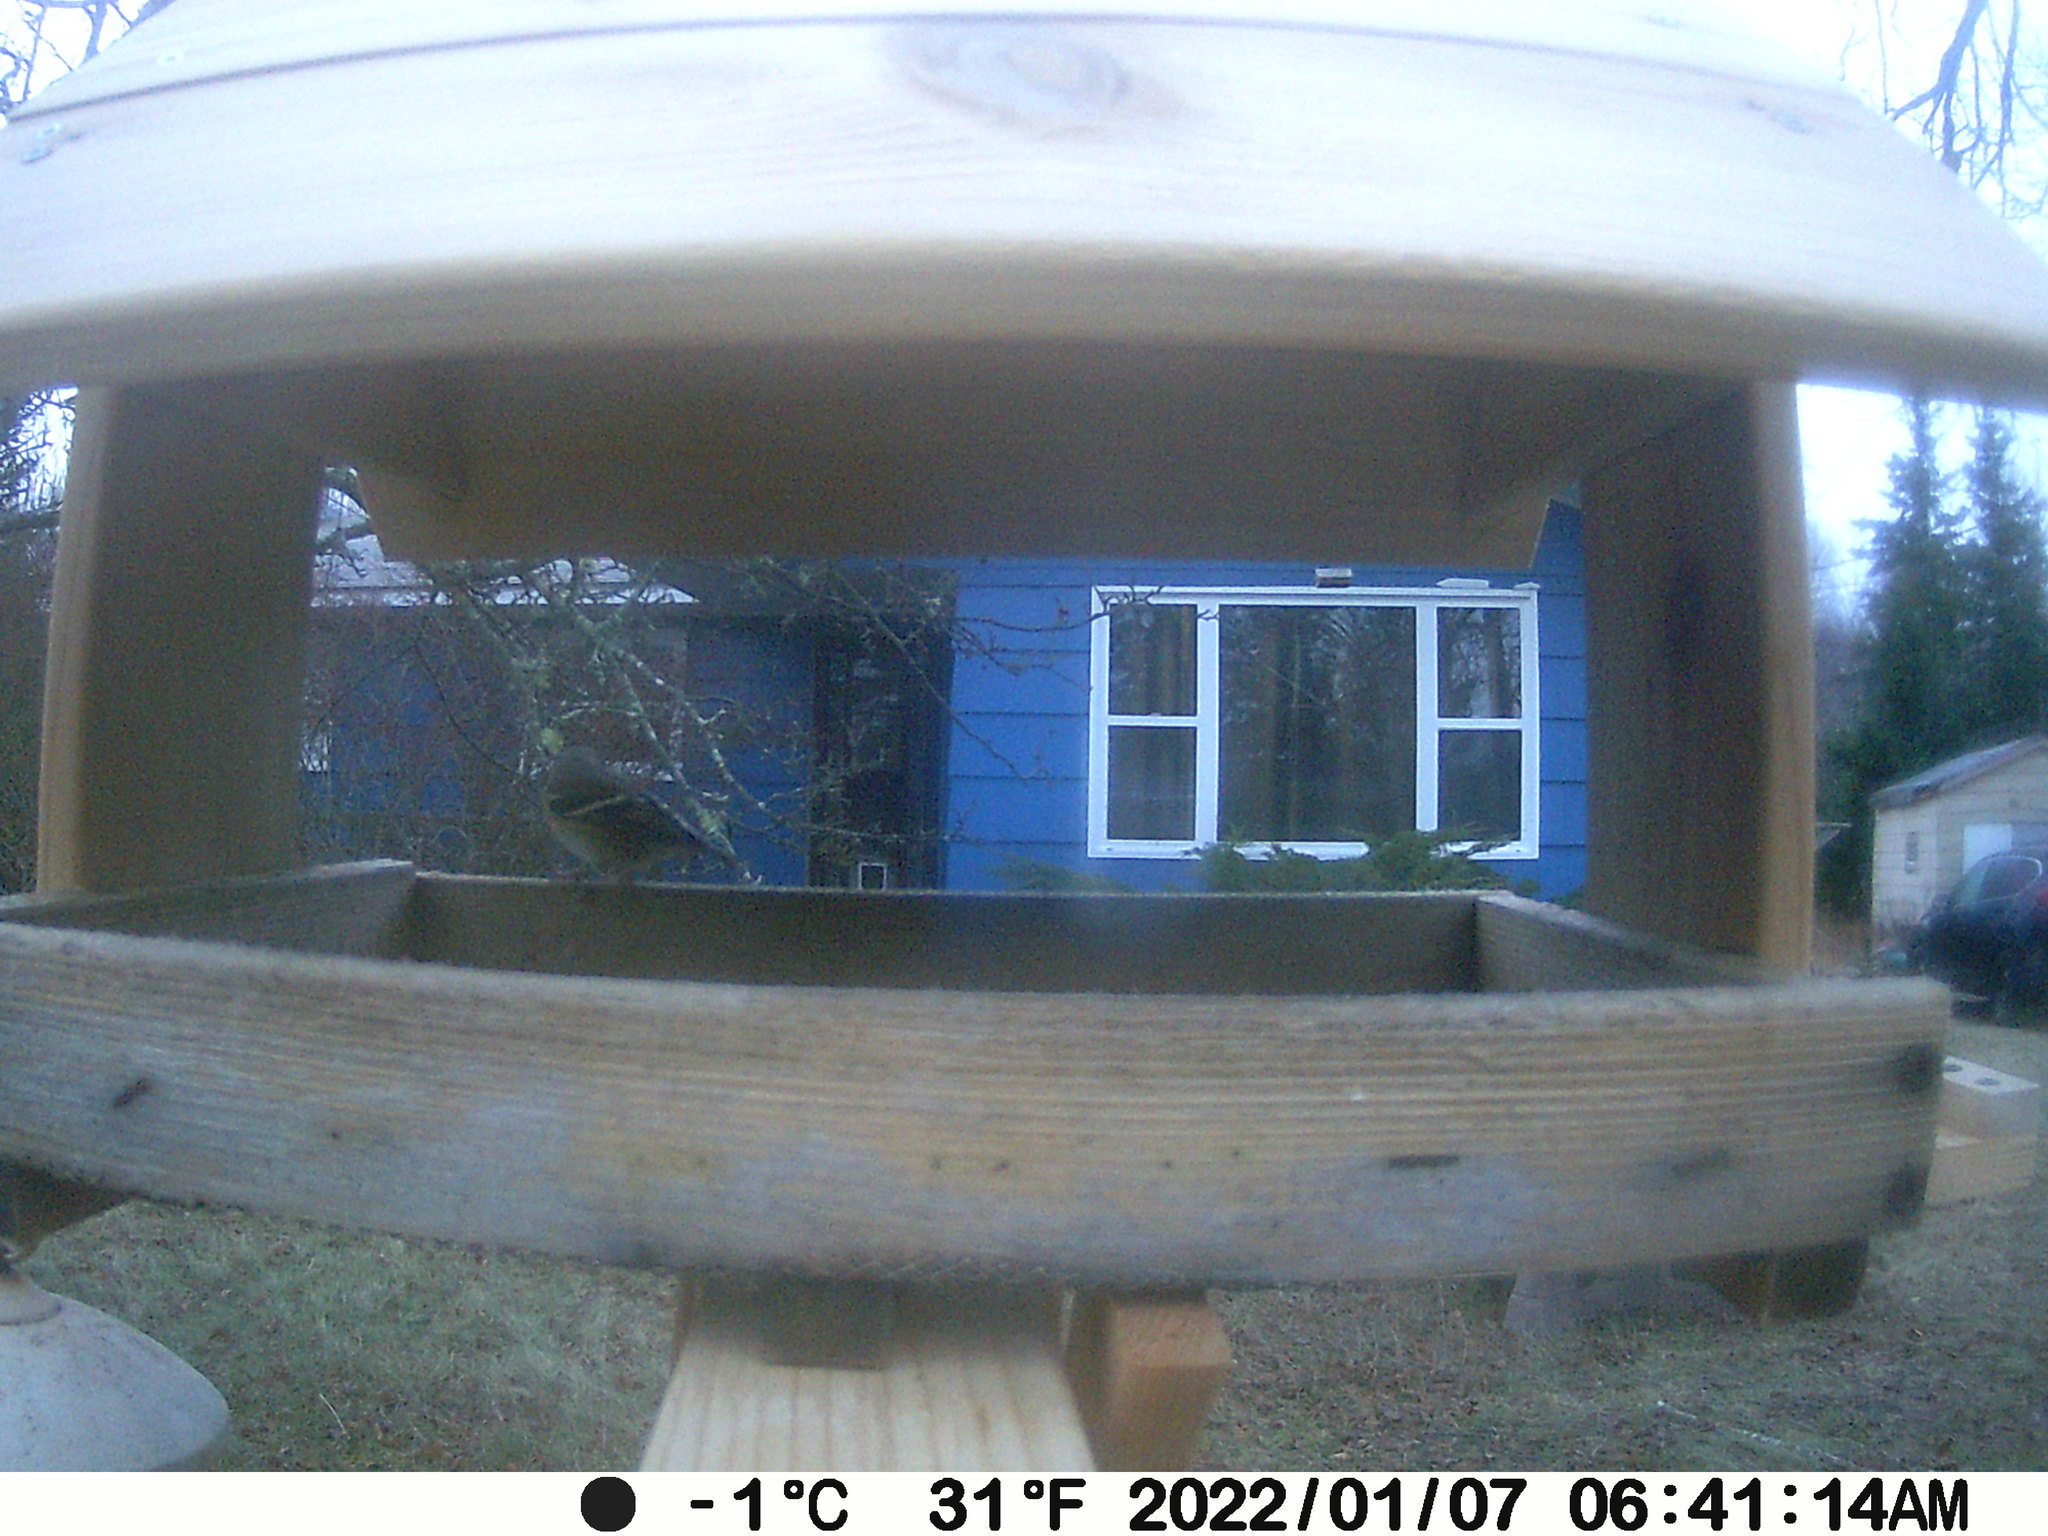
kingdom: Animalia
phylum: Chordata
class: Aves
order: Passeriformes
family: Fringillidae
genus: Spinus
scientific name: Spinus tristis
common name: American goldfinch
